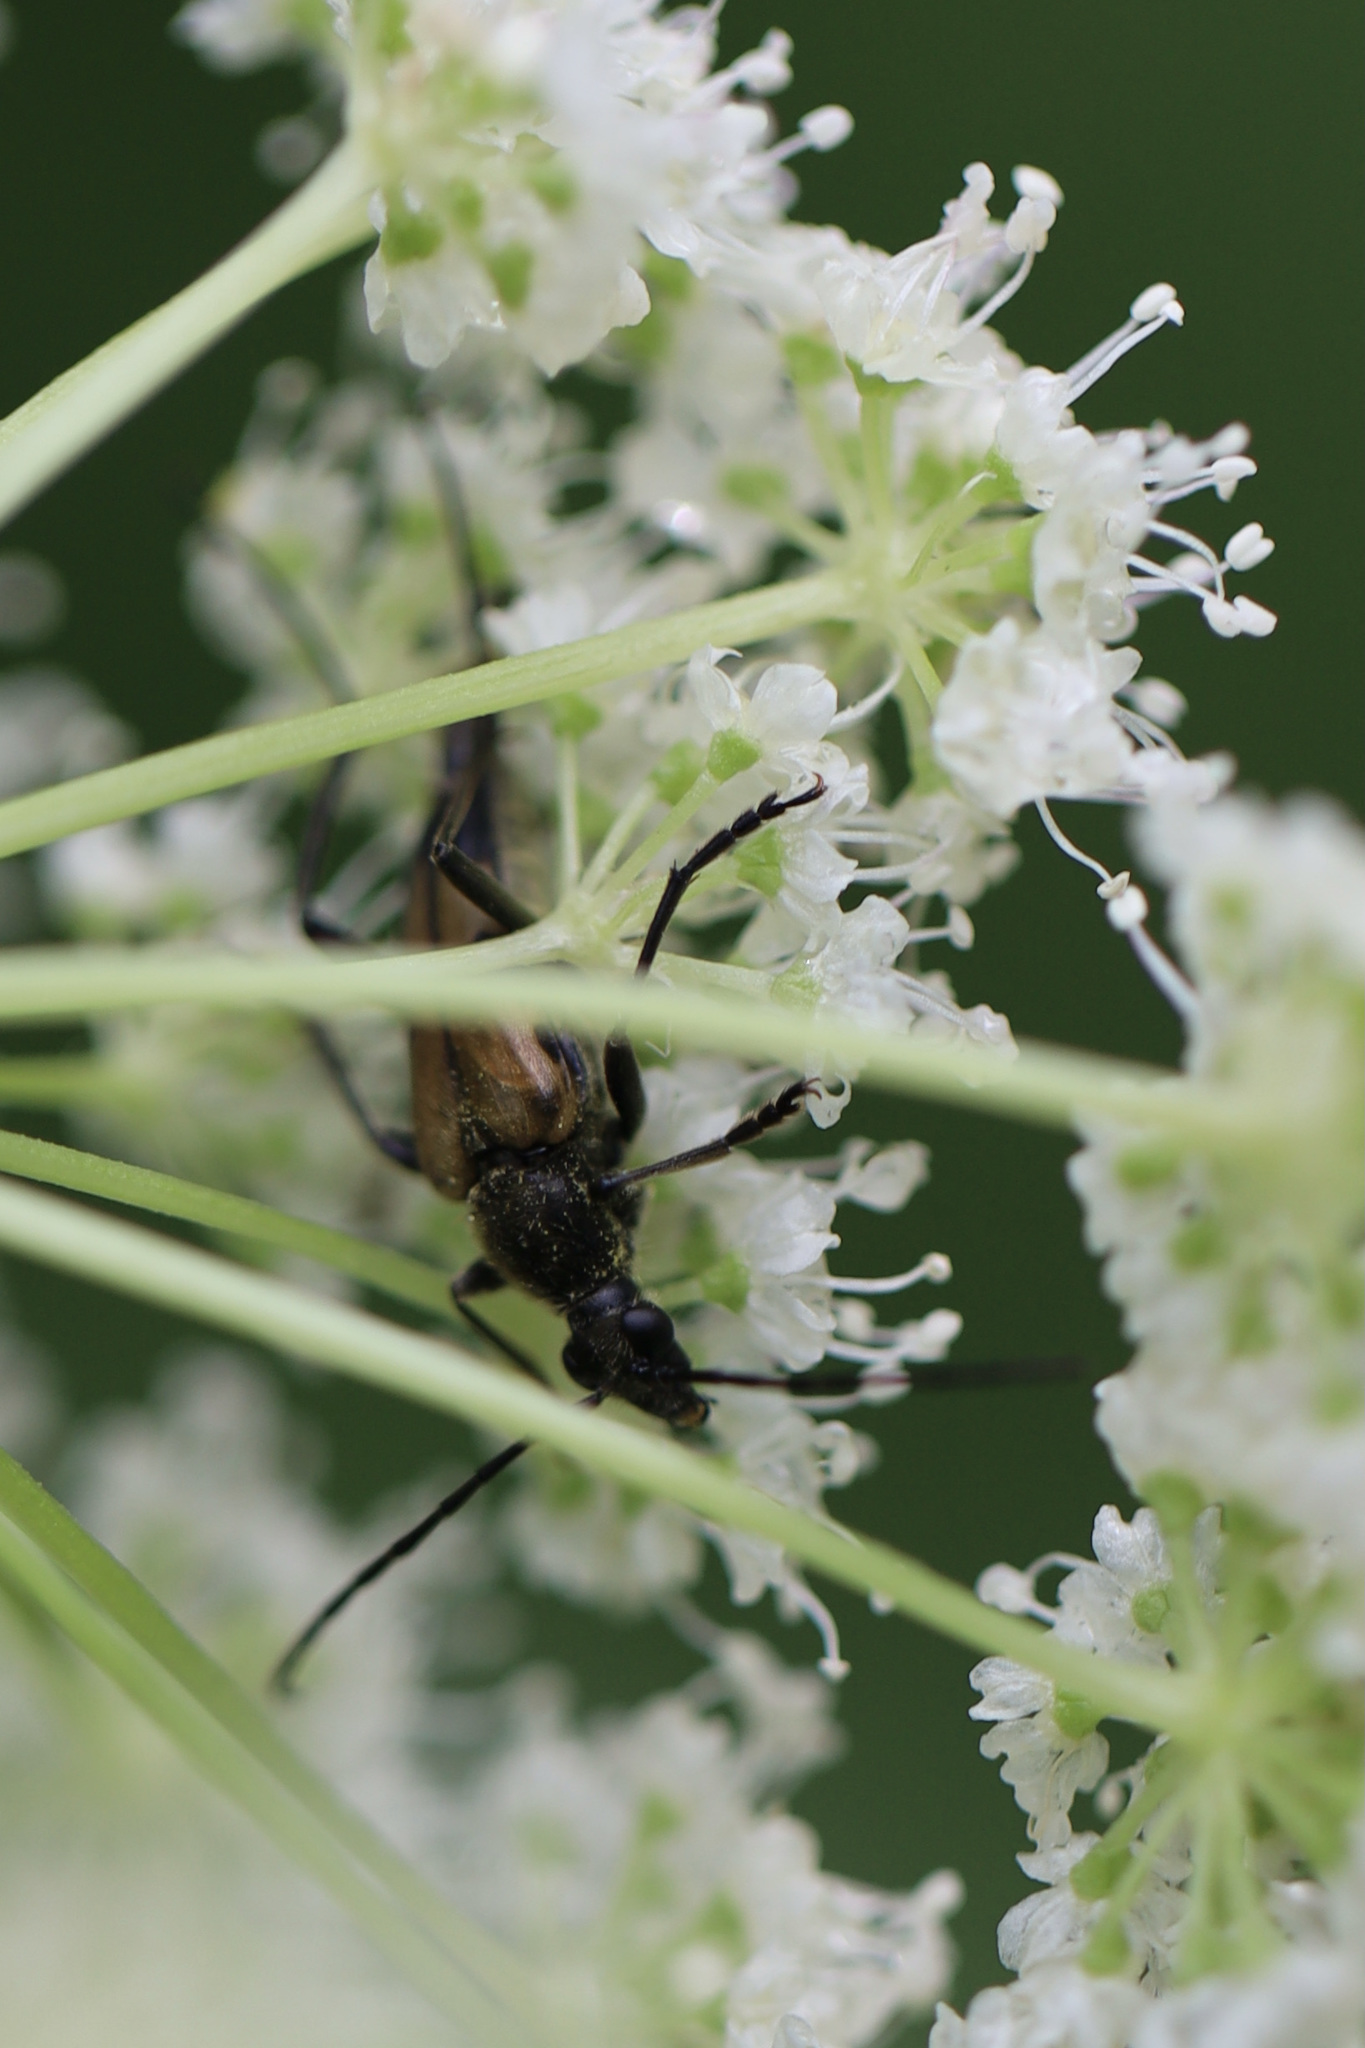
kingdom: Animalia
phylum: Arthropoda
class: Insecta
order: Coleoptera
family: Cerambycidae
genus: Etorofus
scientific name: Etorofus
